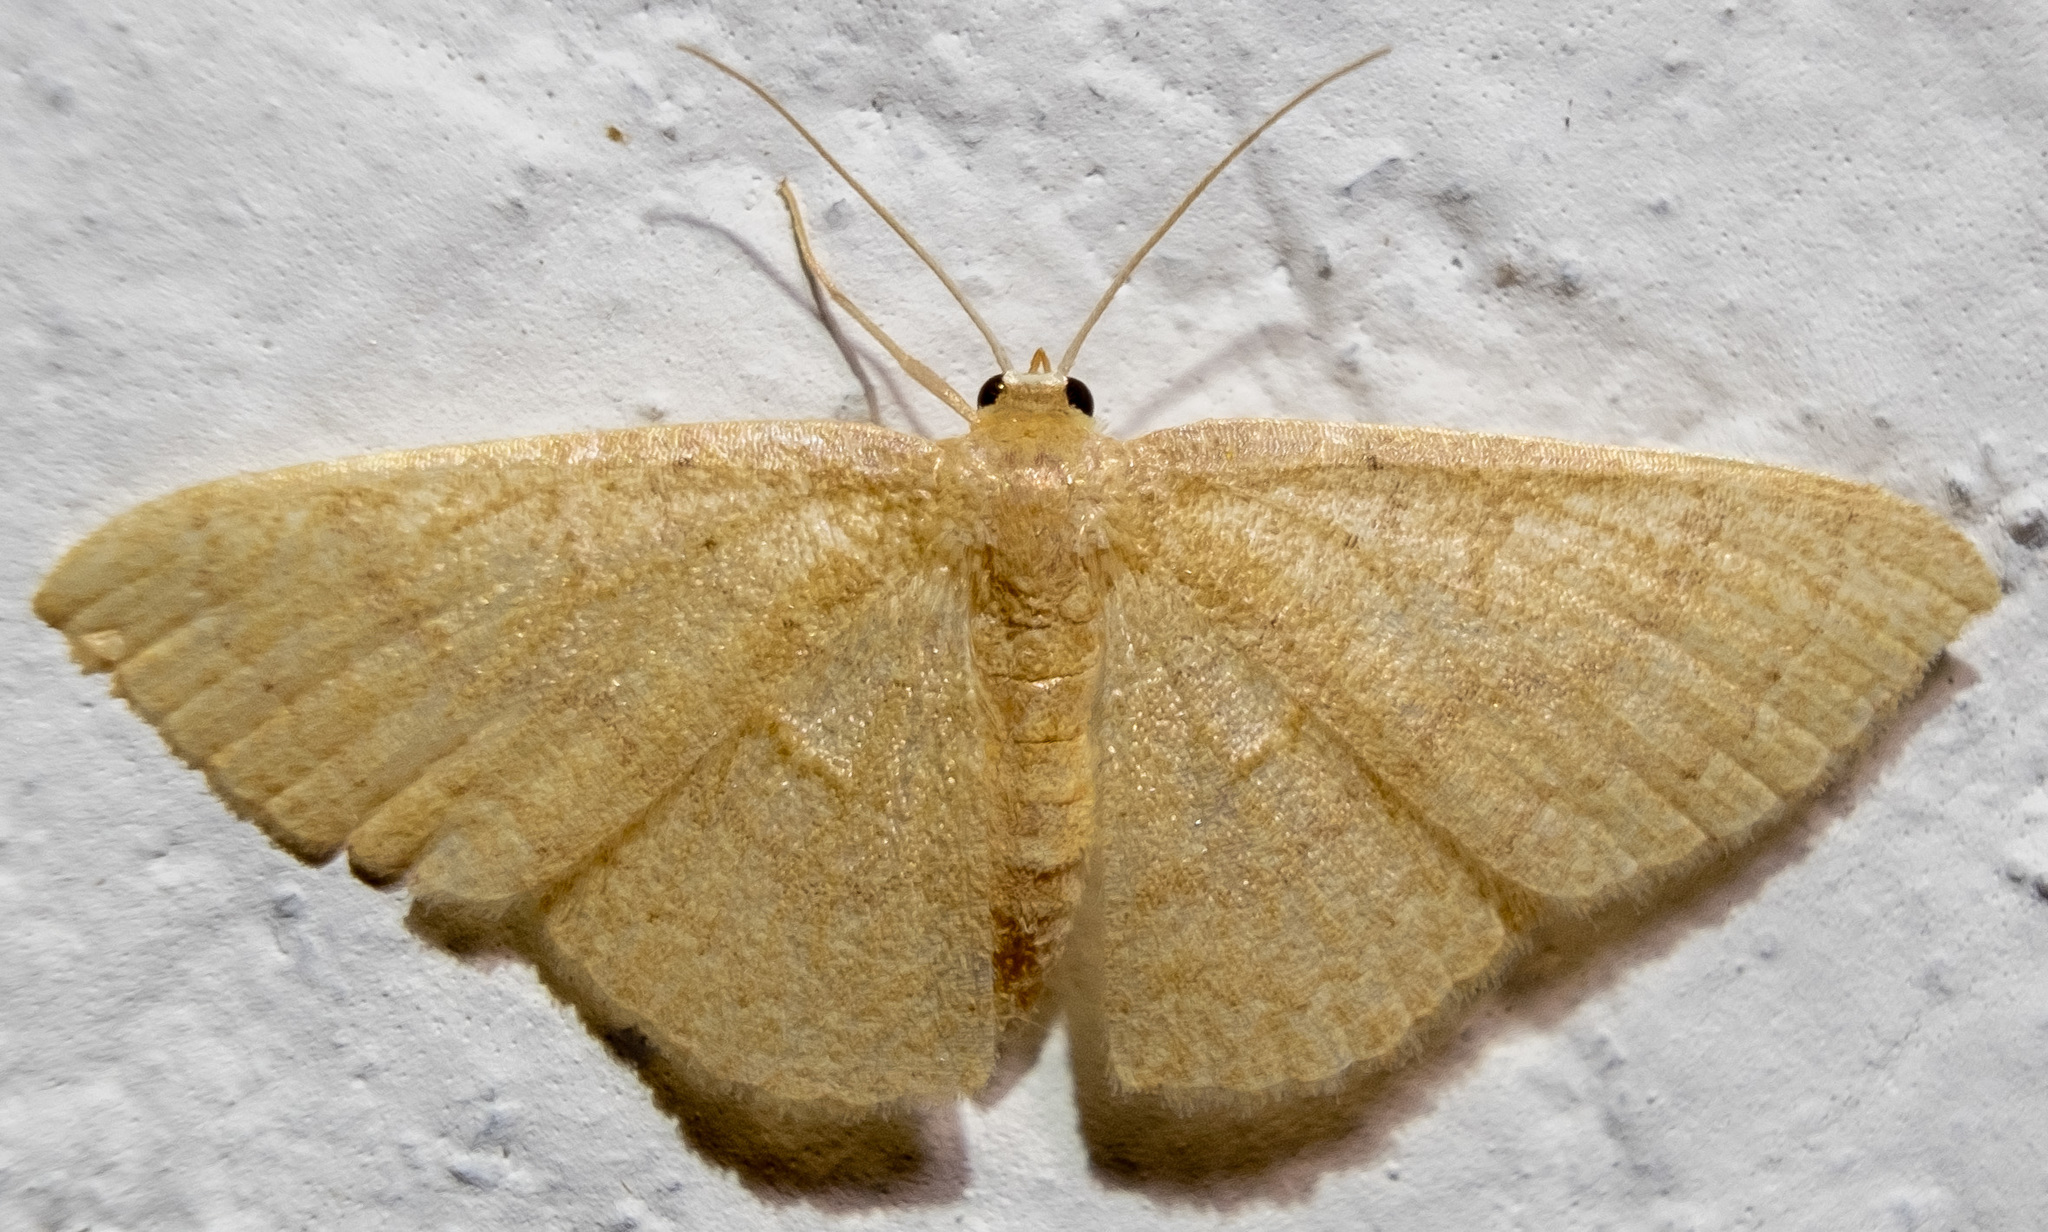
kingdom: Animalia
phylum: Arthropoda
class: Insecta
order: Lepidoptera
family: Geometridae
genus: Pleuroprucha
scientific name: Pleuroprucha insulsaria
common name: Common tan wave
